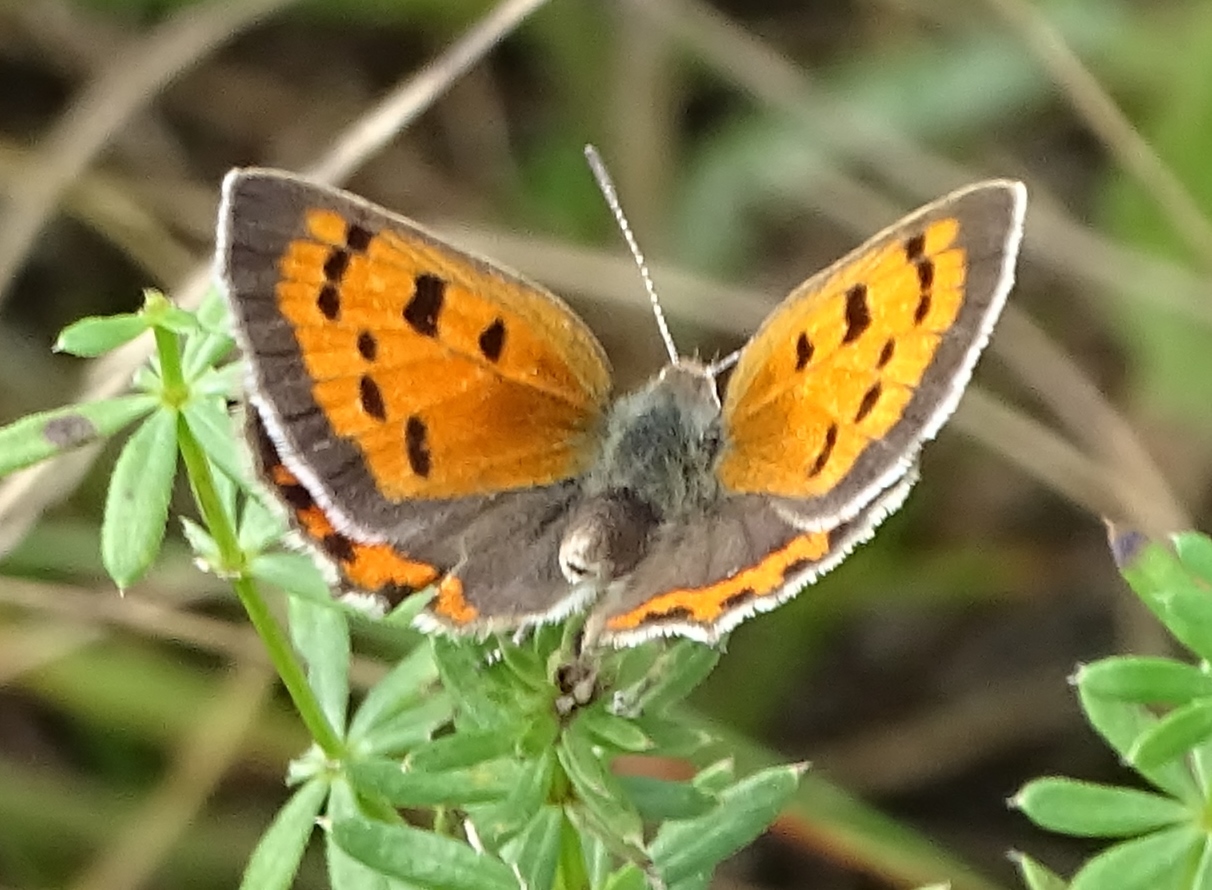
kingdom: Animalia
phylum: Arthropoda
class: Insecta
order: Lepidoptera
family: Lycaenidae
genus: Lycaena
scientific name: Lycaena hypophlaeas
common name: American copper
